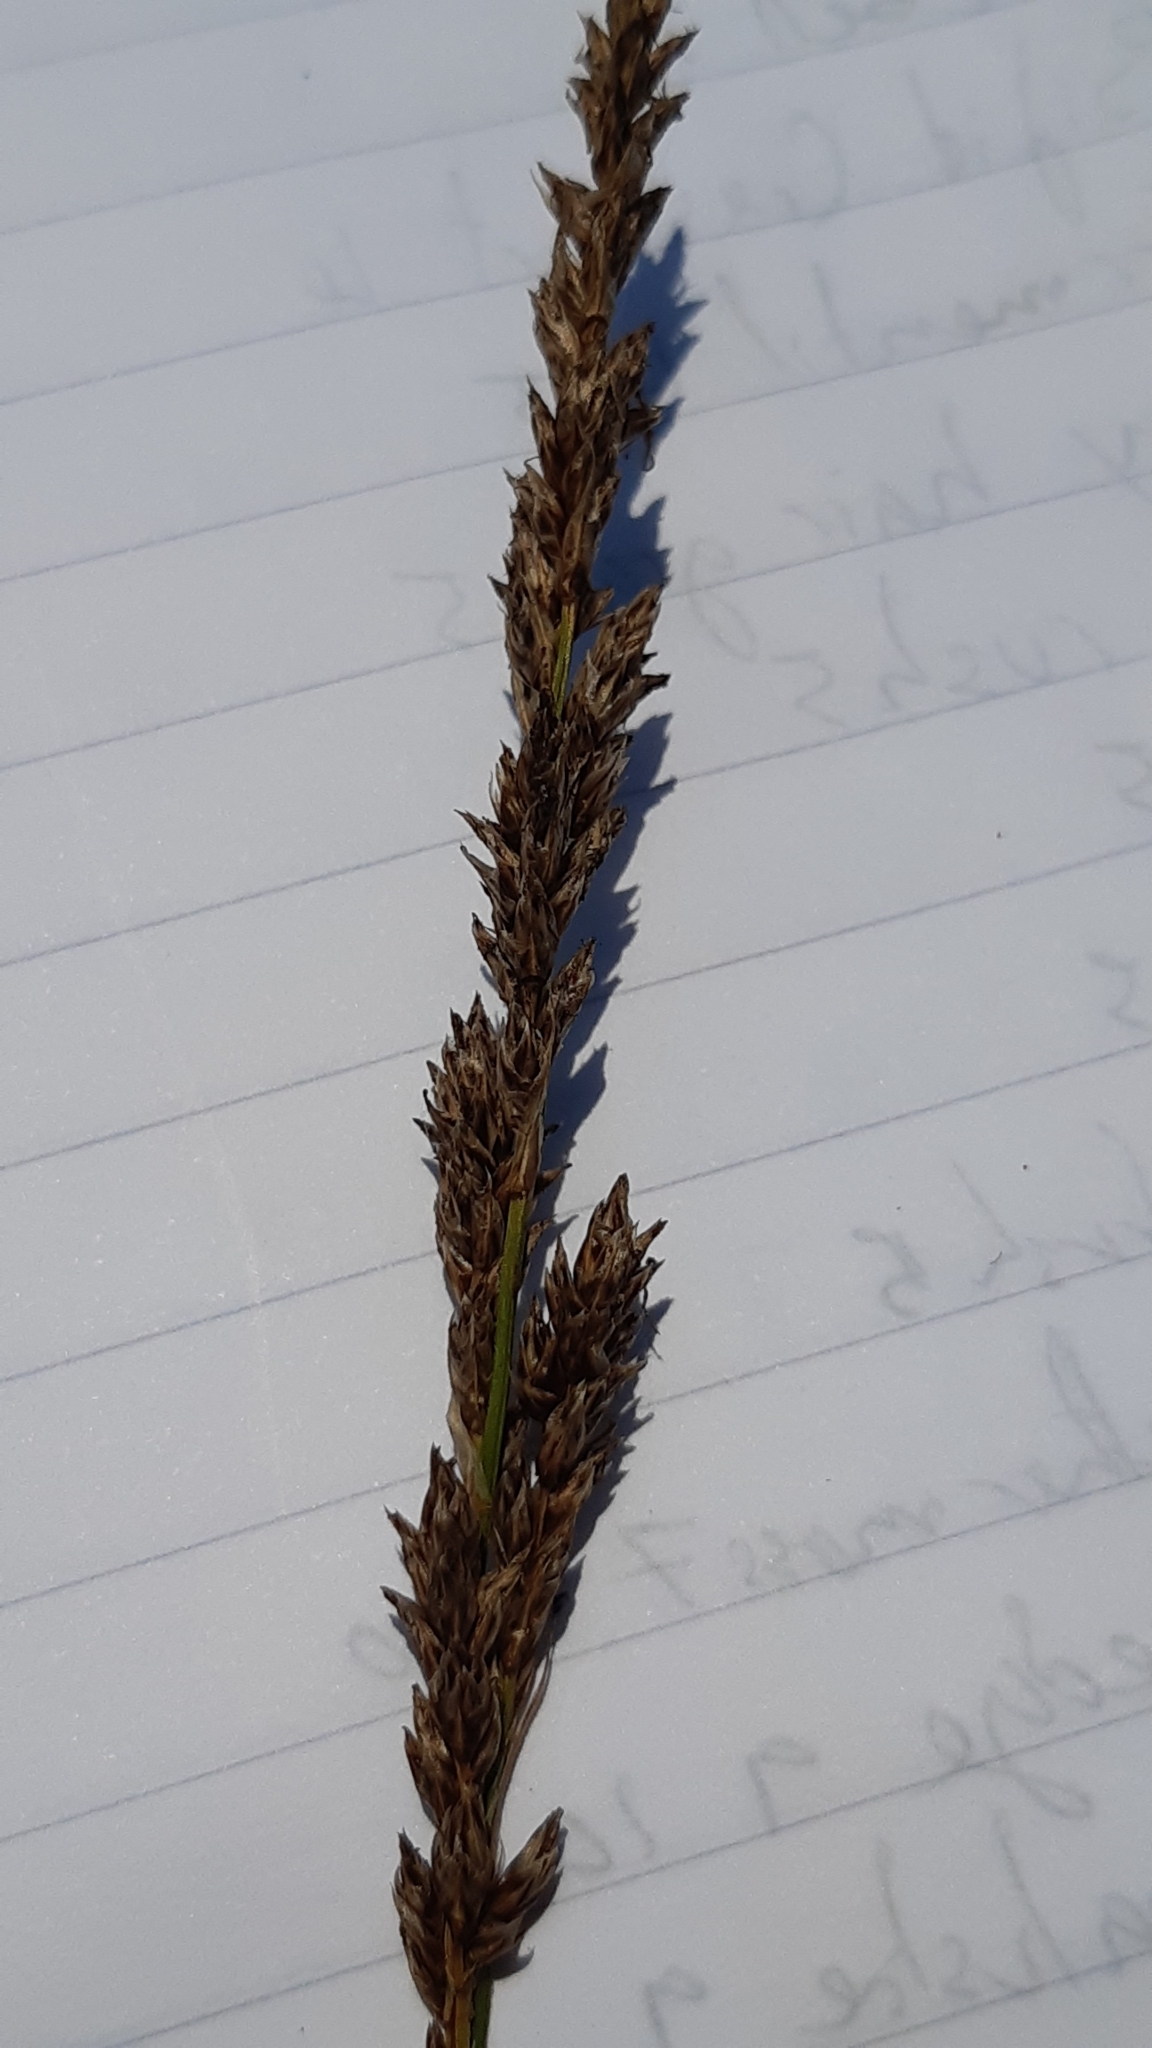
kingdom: Plantae
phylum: Tracheophyta
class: Liliopsida
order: Poales
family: Cyperaceae
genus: Carex
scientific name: Carex paniculata
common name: Greater tussock-sedge
